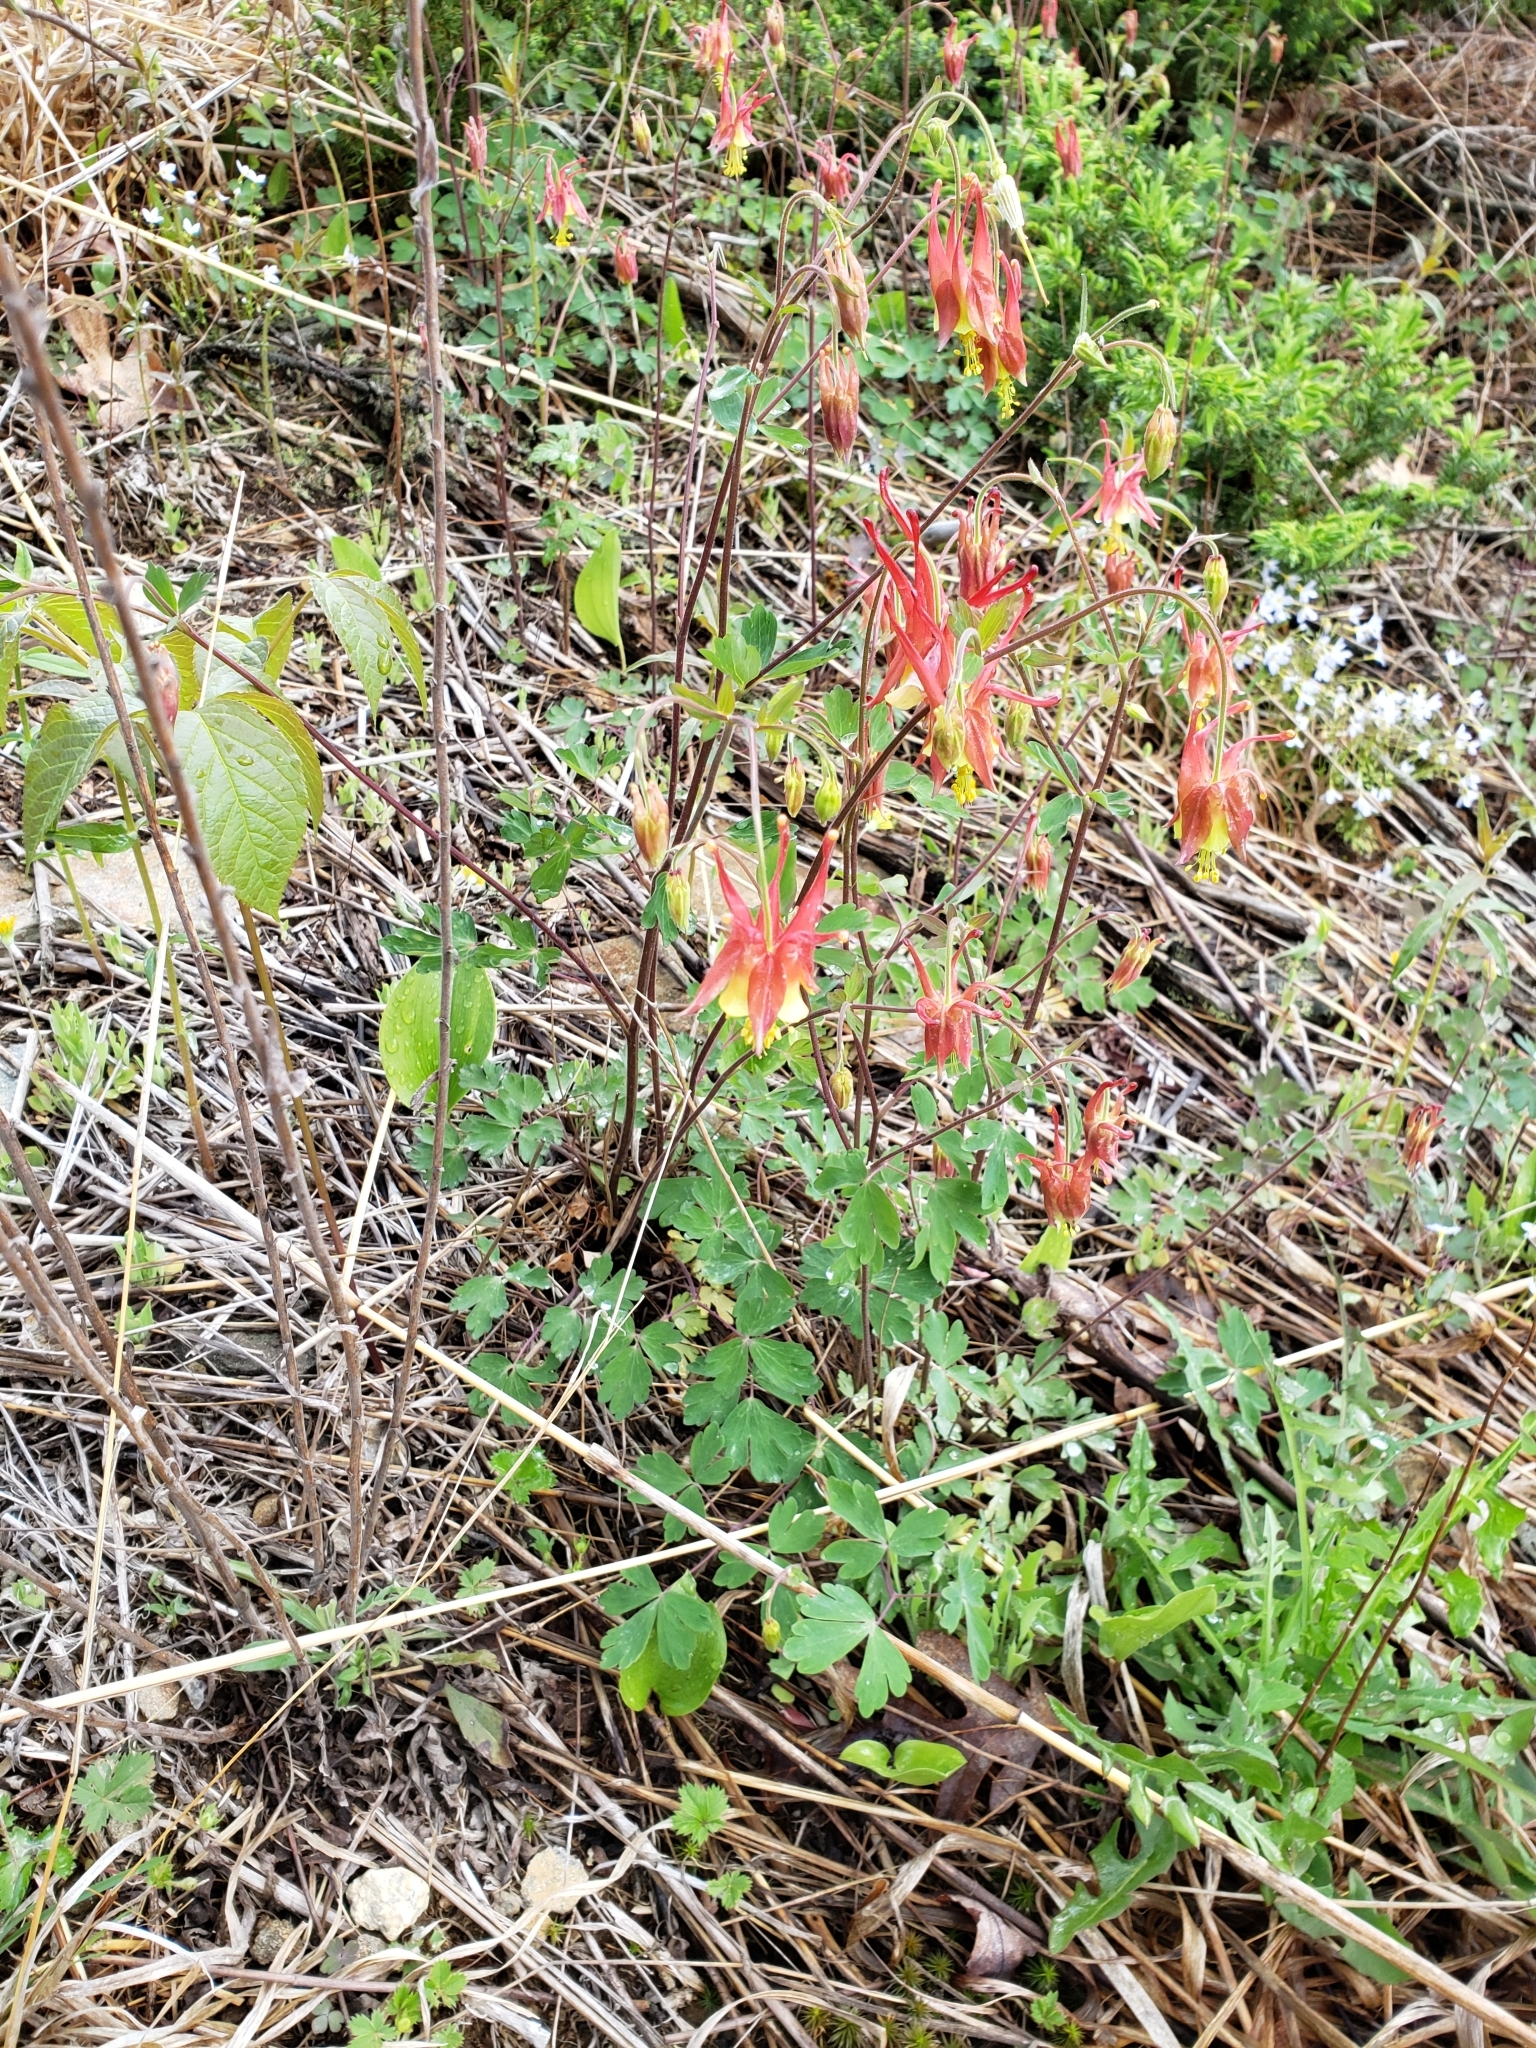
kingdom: Plantae
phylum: Tracheophyta
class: Magnoliopsida
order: Ranunculales
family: Ranunculaceae
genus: Aquilegia
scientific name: Aquilegia canadensis
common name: American columbine
